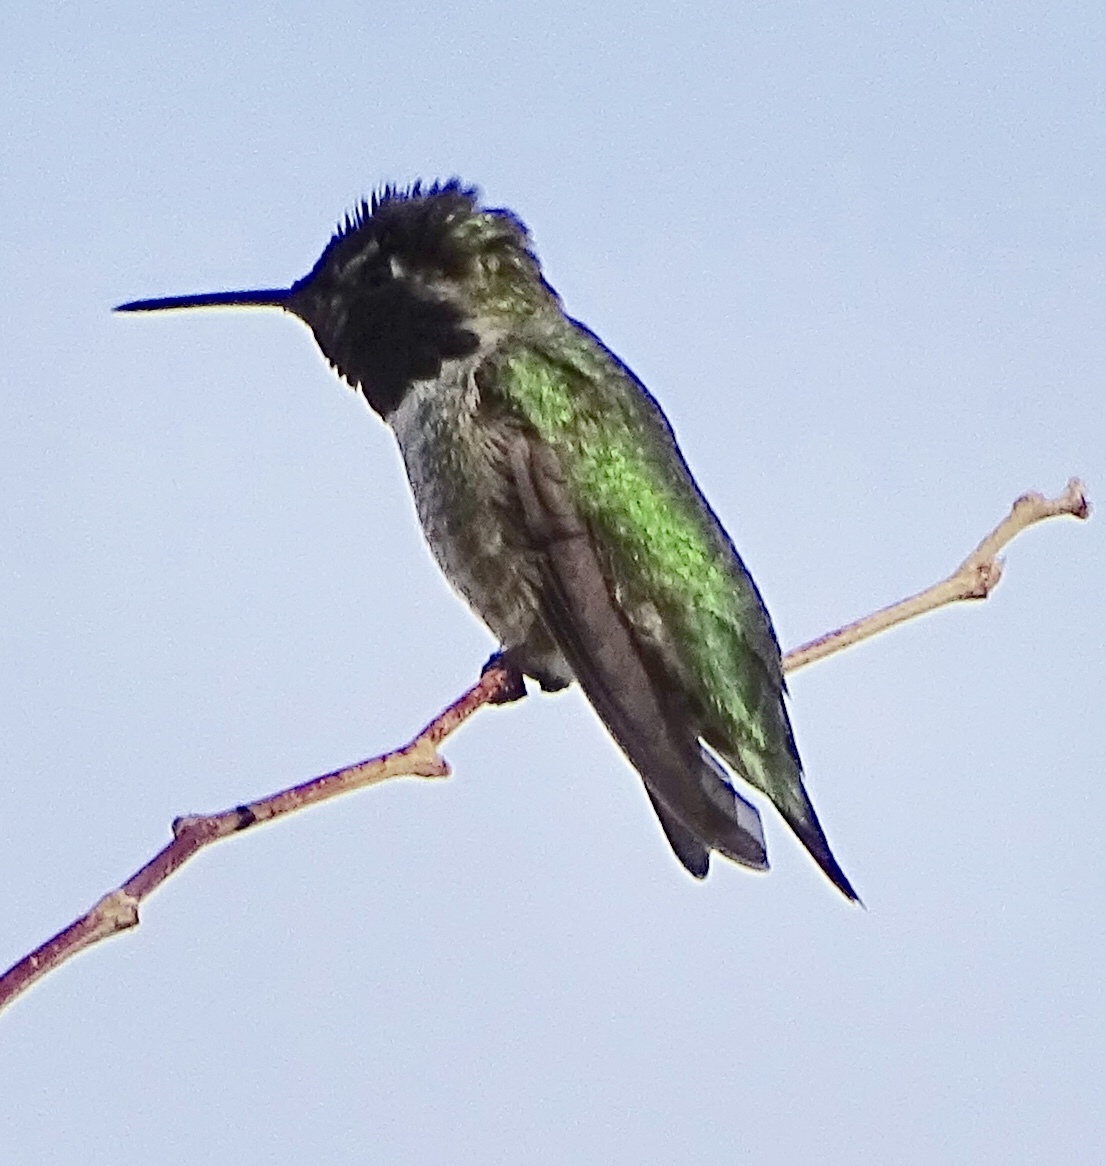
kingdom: Animalia
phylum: Chordata
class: Aves
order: Apodiformes
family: Trochilidae
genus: Calypte
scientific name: Calypte anna
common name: Anna's hummingbird
